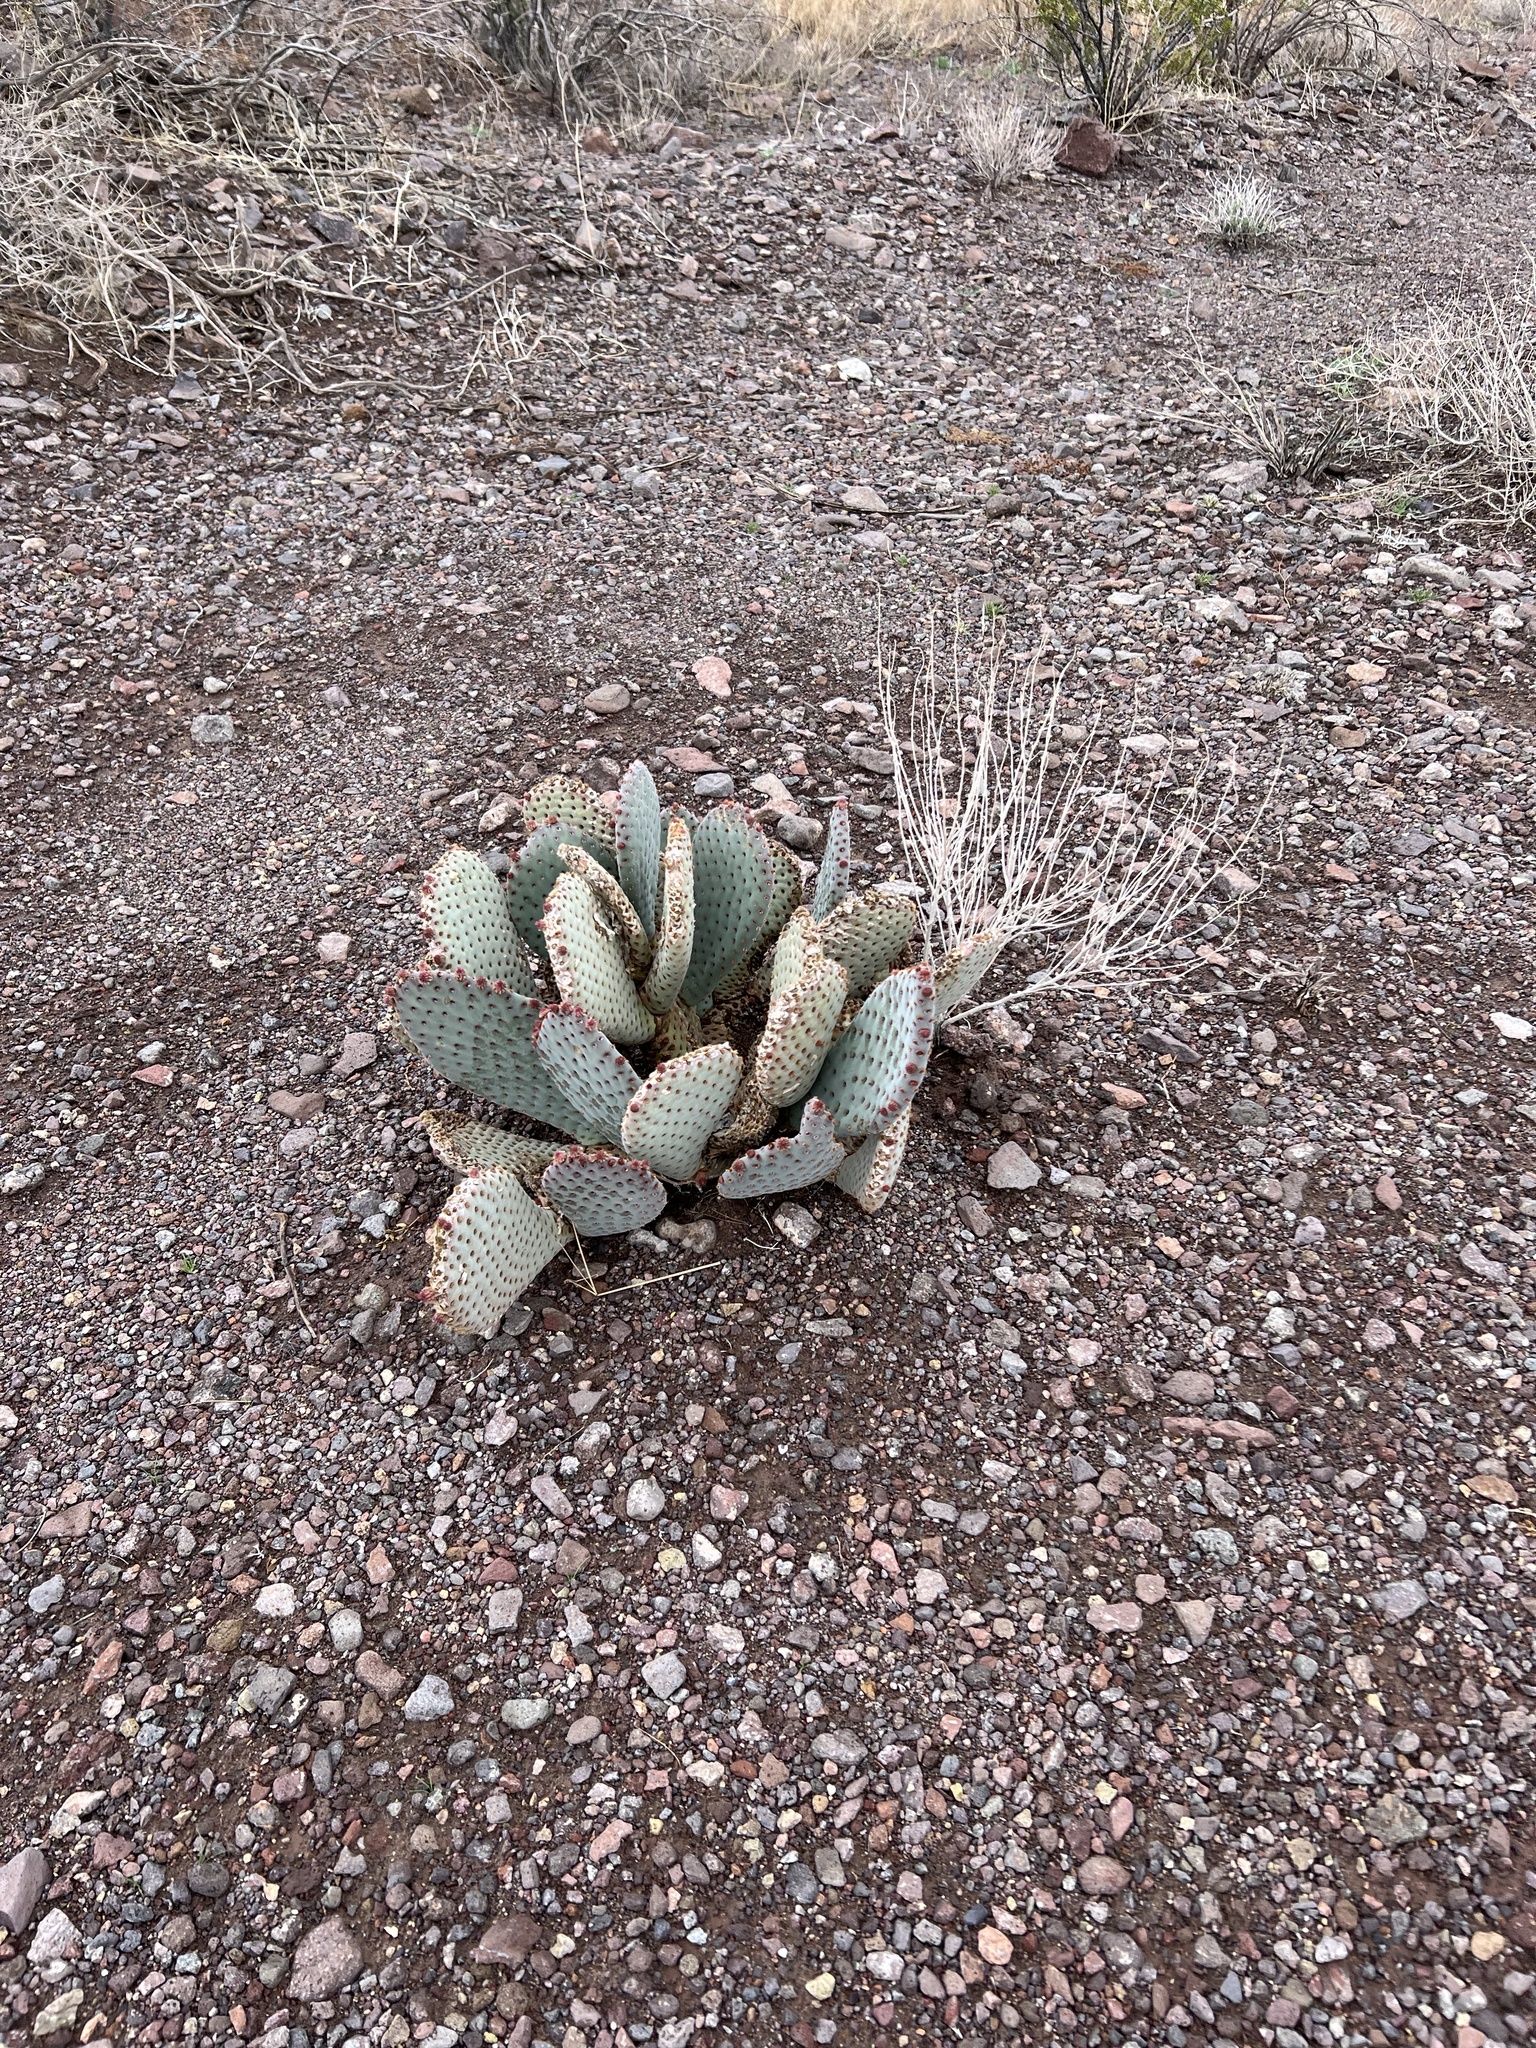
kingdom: Plantae
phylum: Tracheophyta
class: Magnoliopsida
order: Caryophyllales
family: Cactaceae
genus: Opuntia
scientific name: Opuntia basilaris
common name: Beavertail prickly-pear
